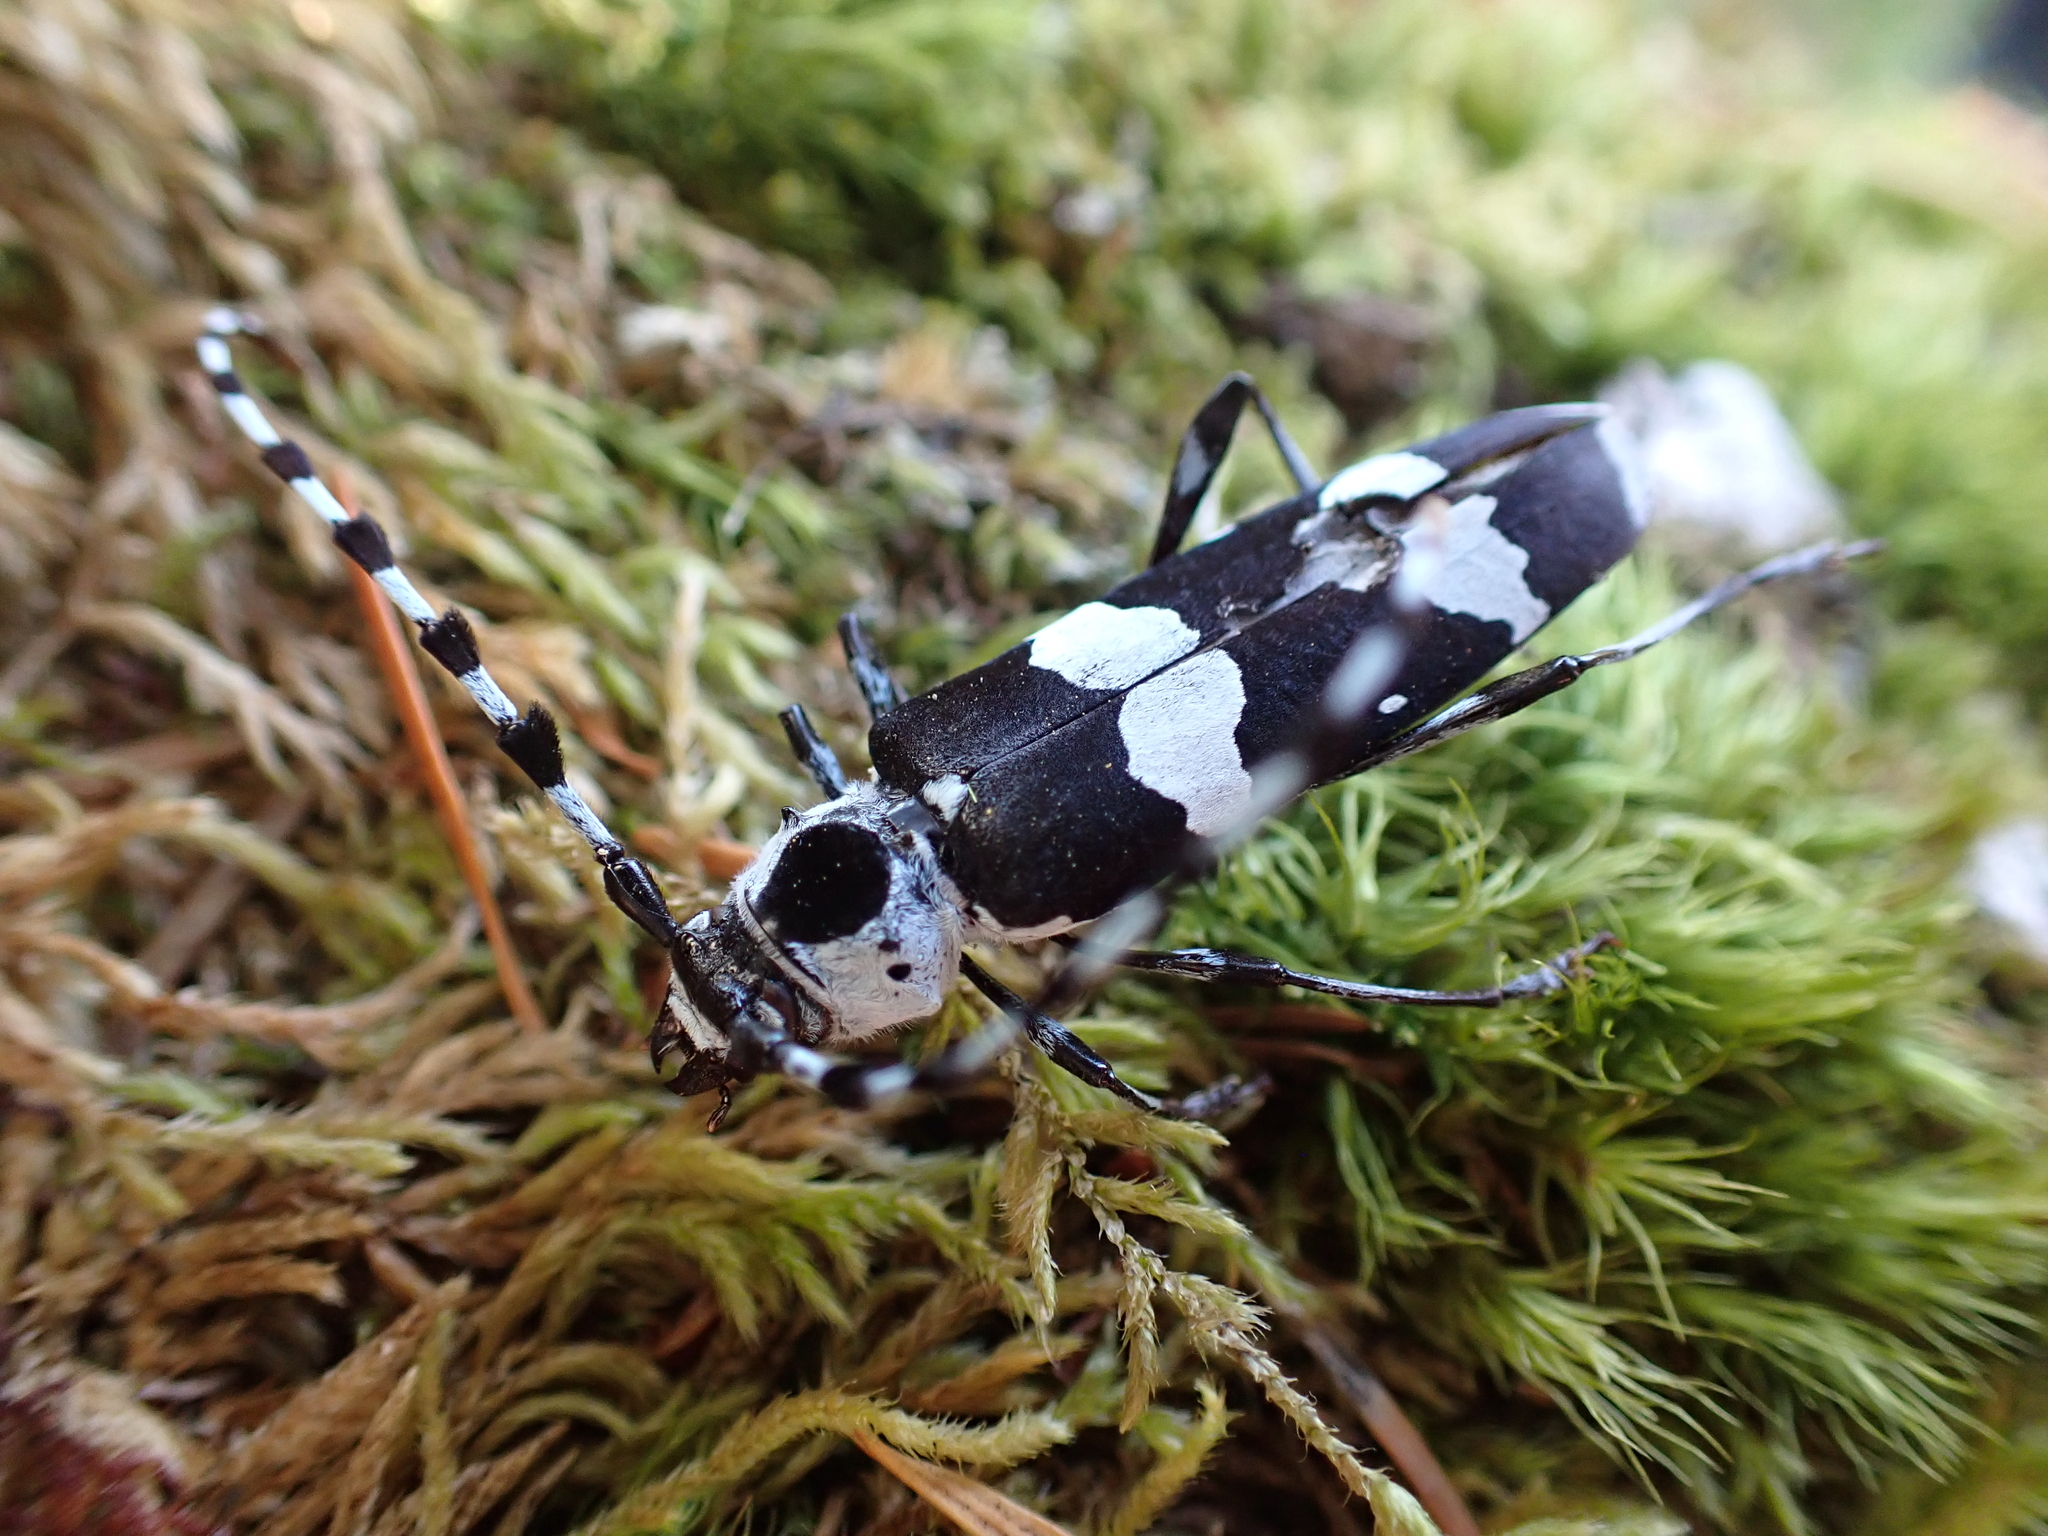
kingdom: Animalia
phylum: Arthropoda
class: Insecta
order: Coleoptera
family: Cerambycidae
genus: Rosalia
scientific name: Rosalia funebris
